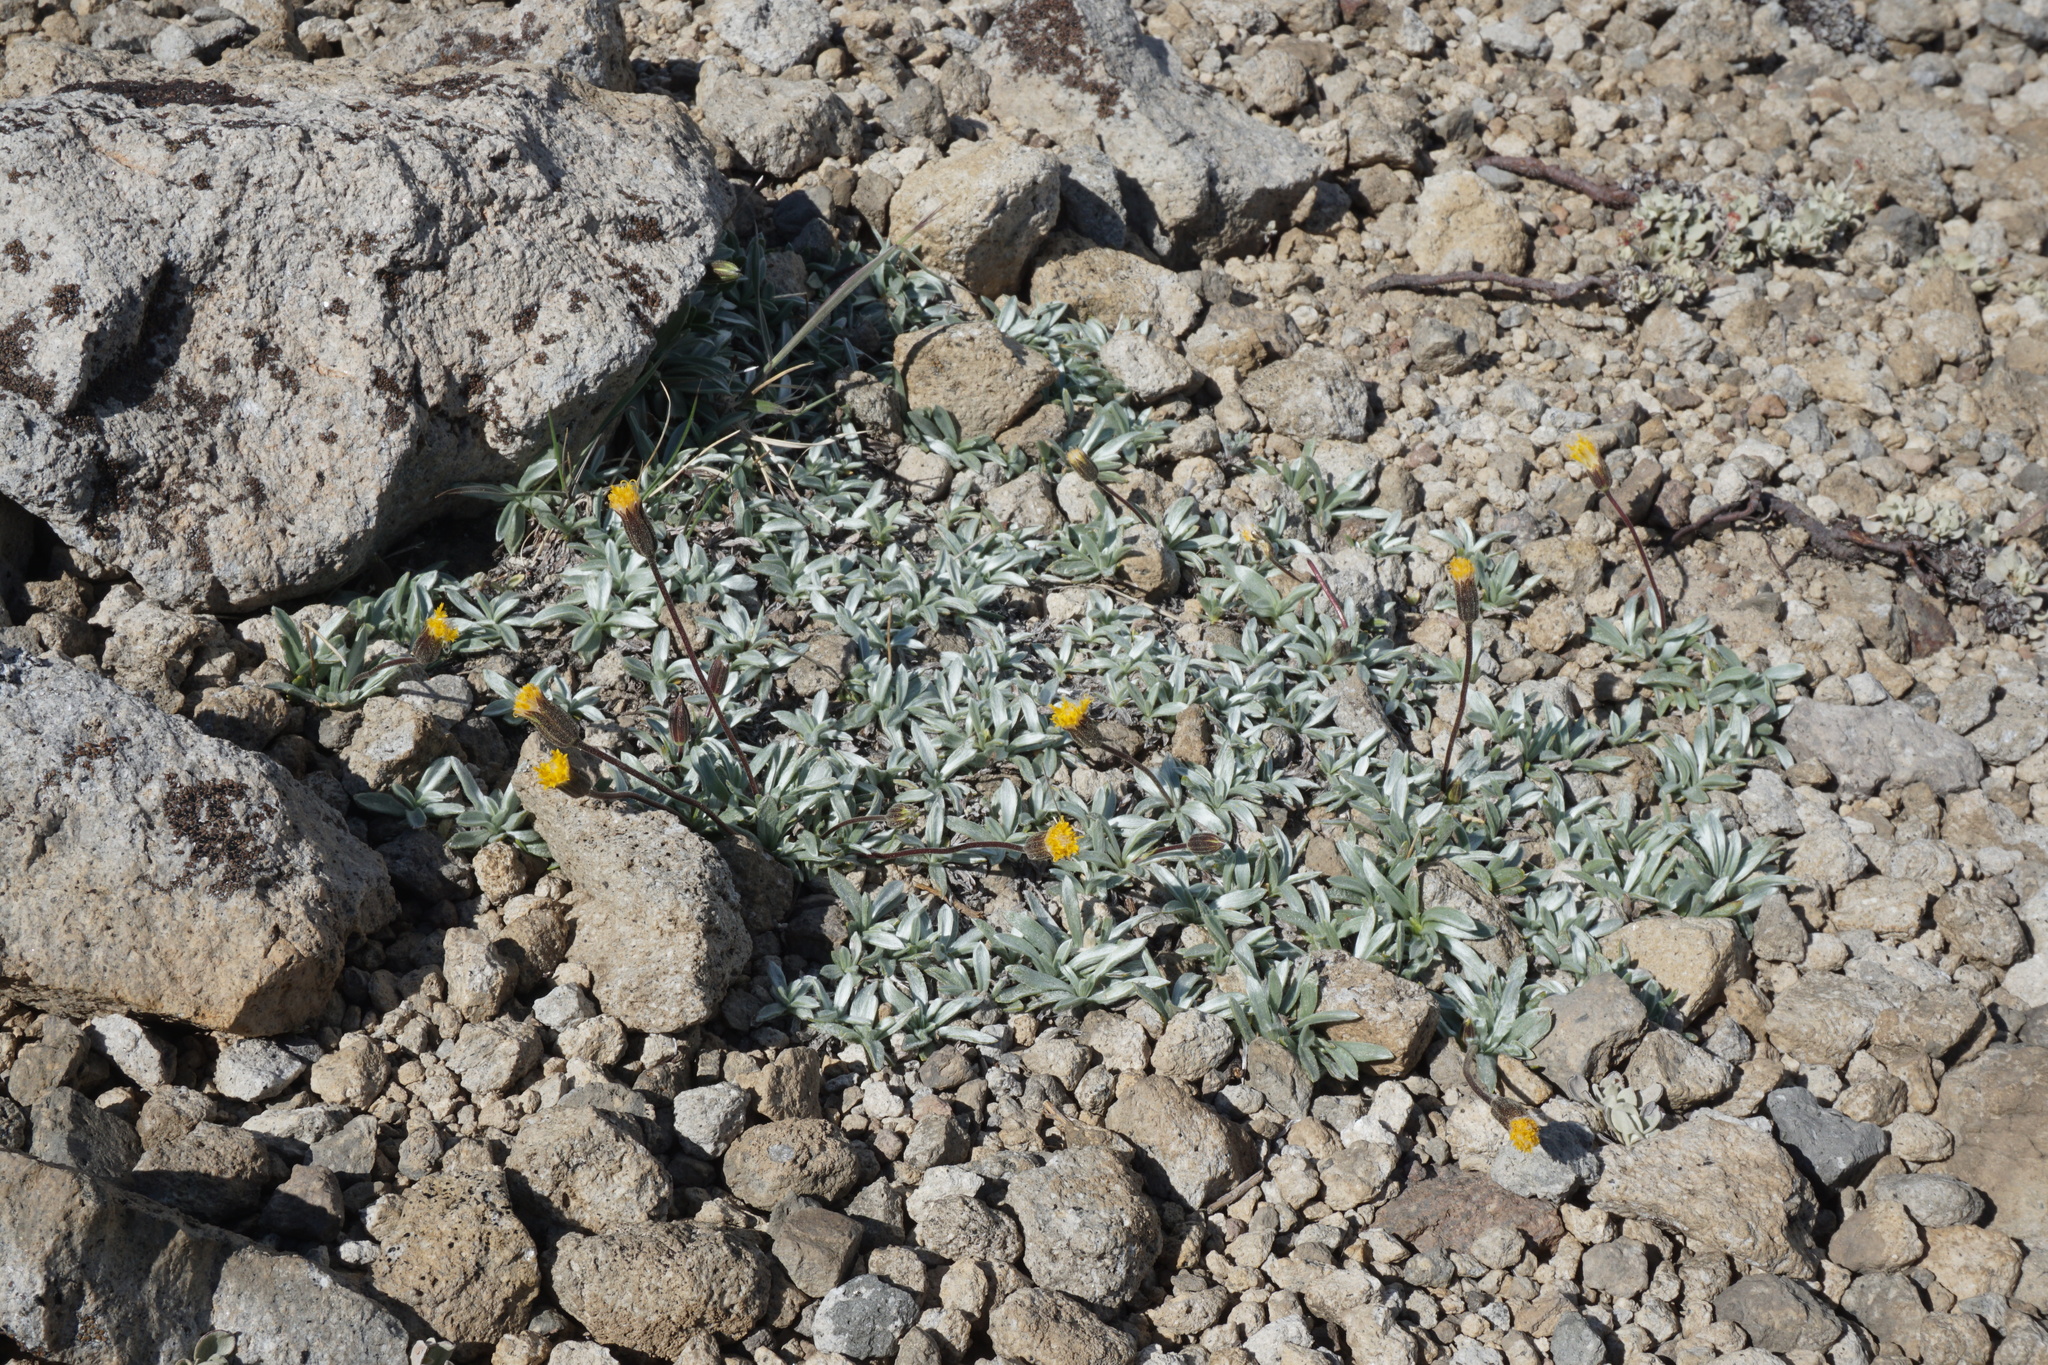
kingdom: Plantae
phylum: Tracheophyta
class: Magnoliopsida
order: Asterales
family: Asteraceae
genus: Raillardella
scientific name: Raillardella argentea
